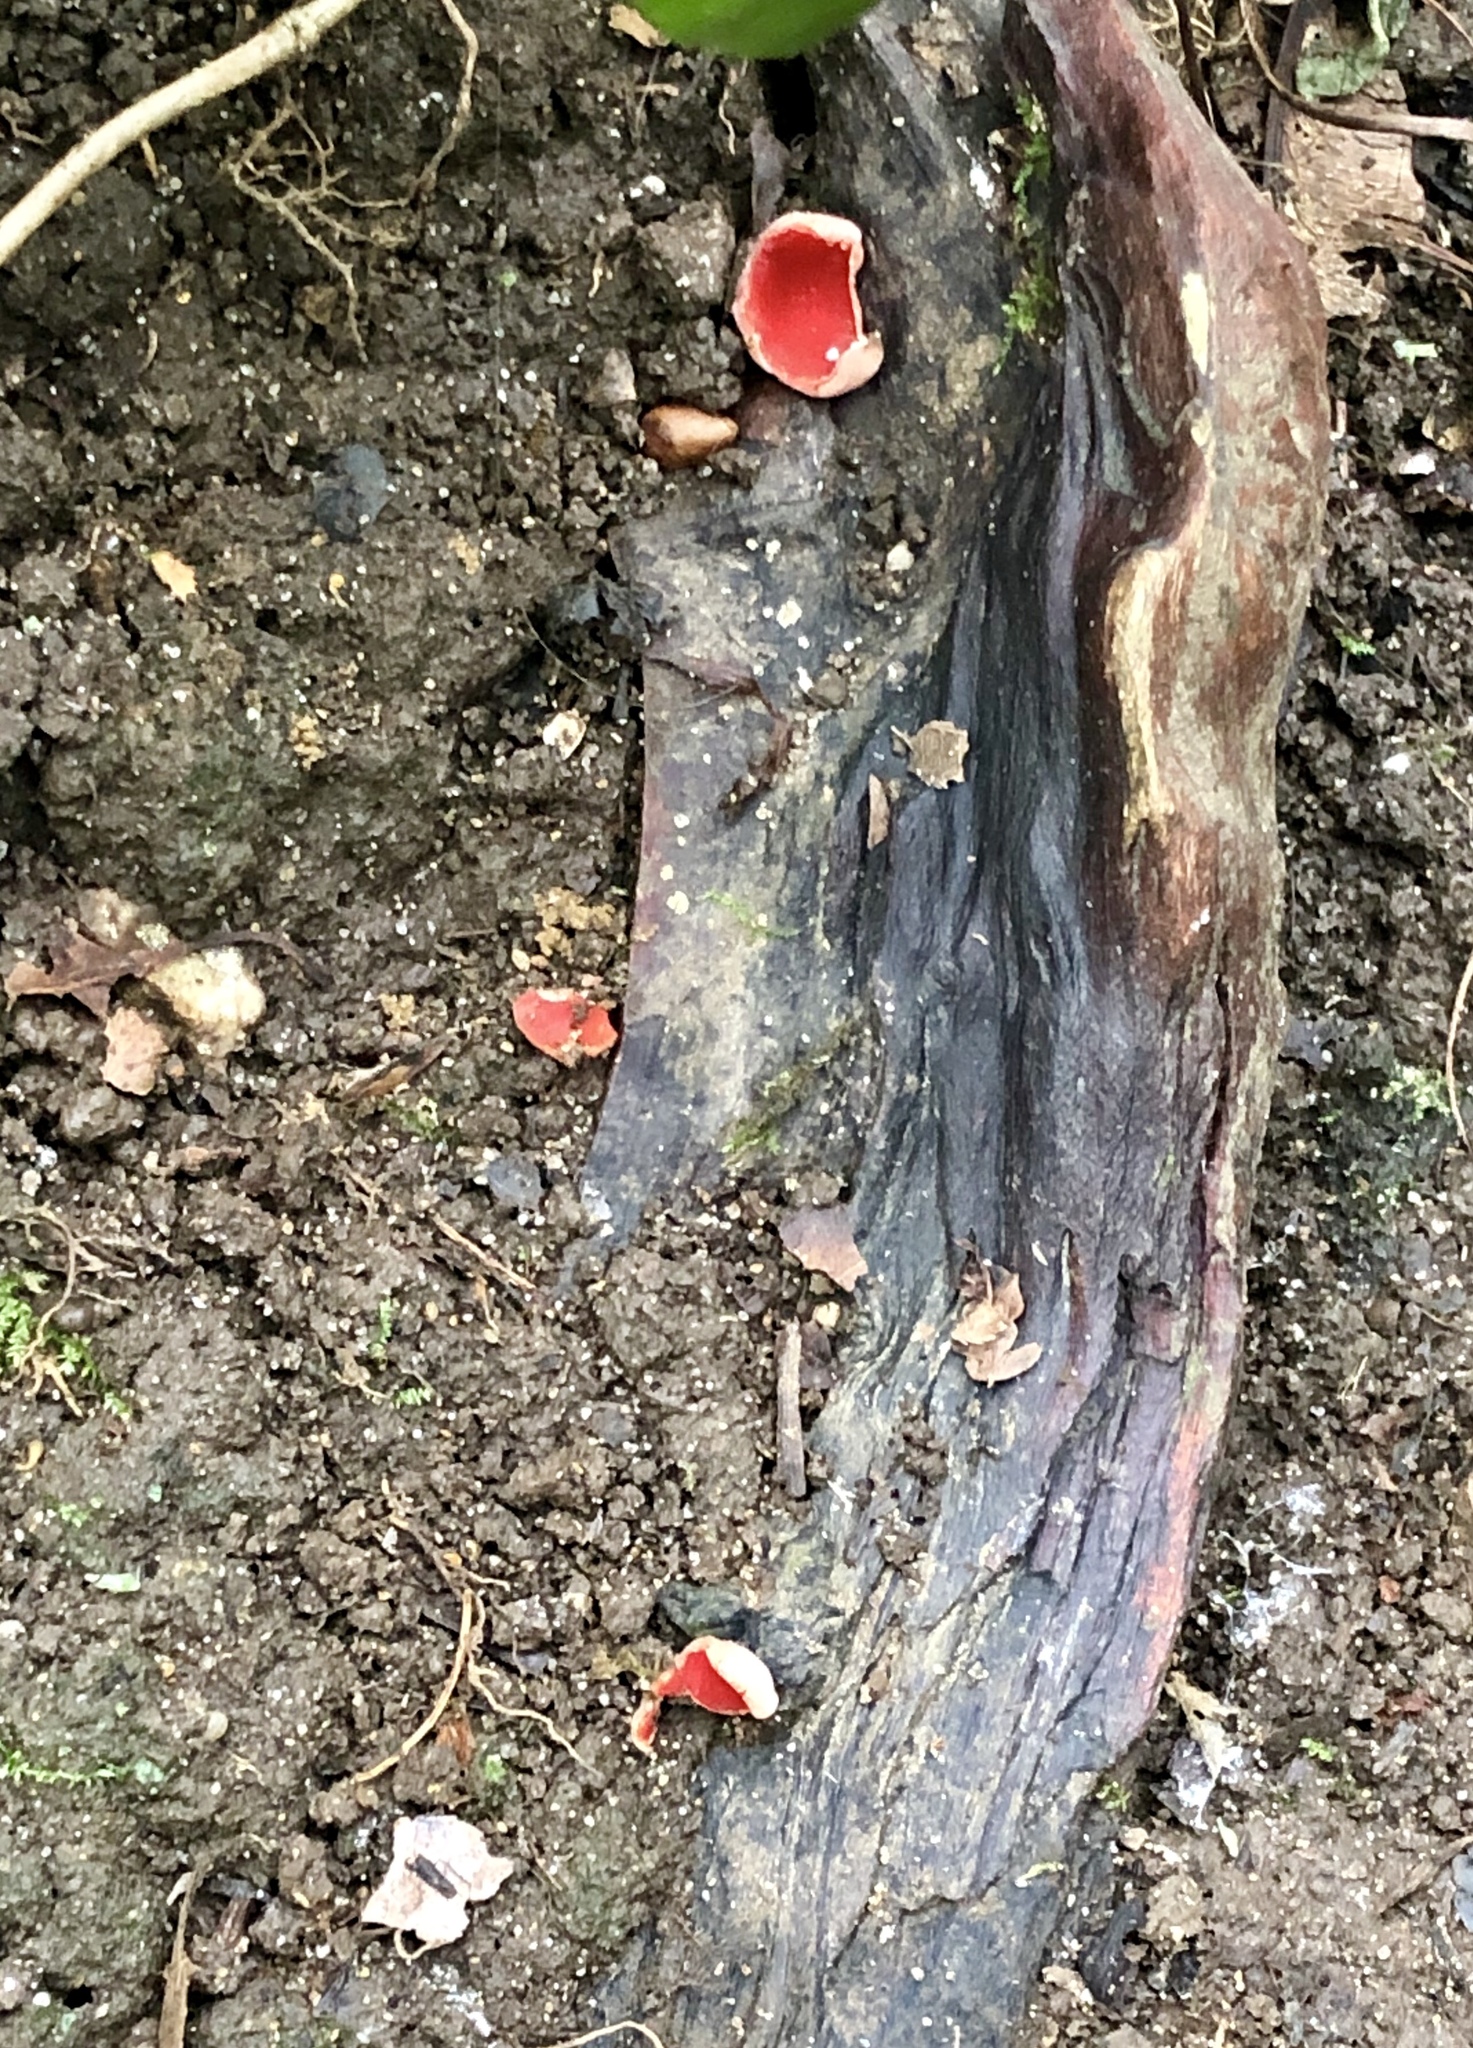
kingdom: Fungi
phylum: Ascomycota
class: Pezizomycetes
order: Pezizales
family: Sarcoscyphaceae
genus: Sarcoscypha
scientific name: Sarcoscypha
